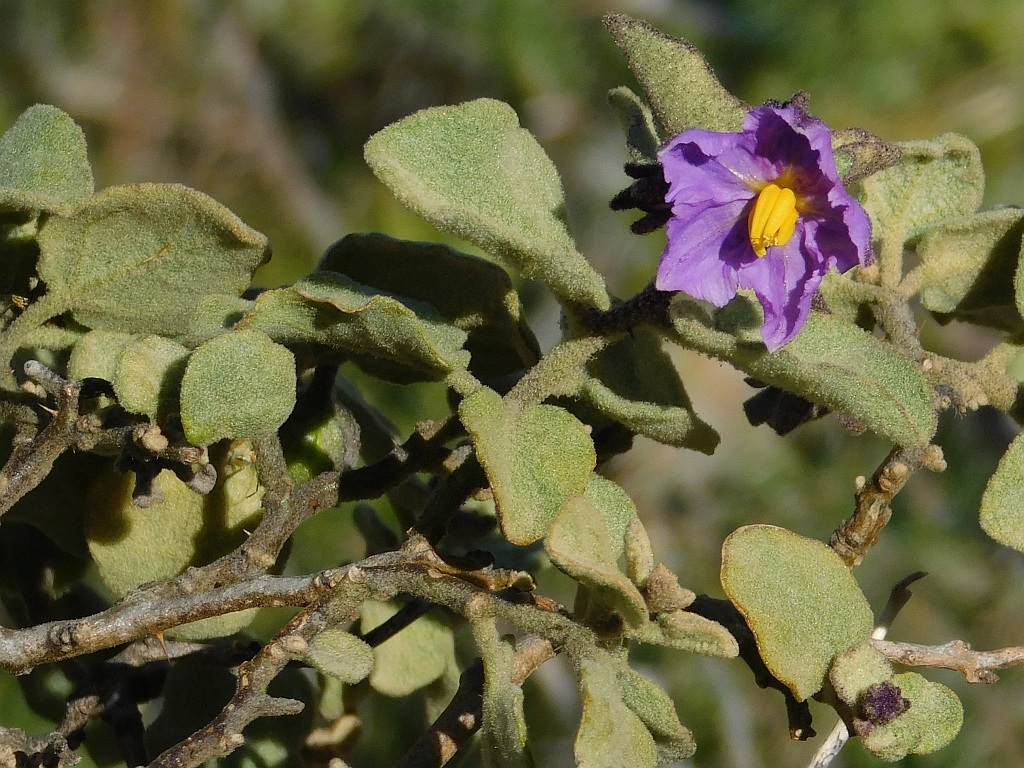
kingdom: Plantae
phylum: Tracheophyta
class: Magnoliopsida
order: Solanales
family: Solanaceae
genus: Solanum
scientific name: Solanum tomentosum
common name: Wild aubergine
